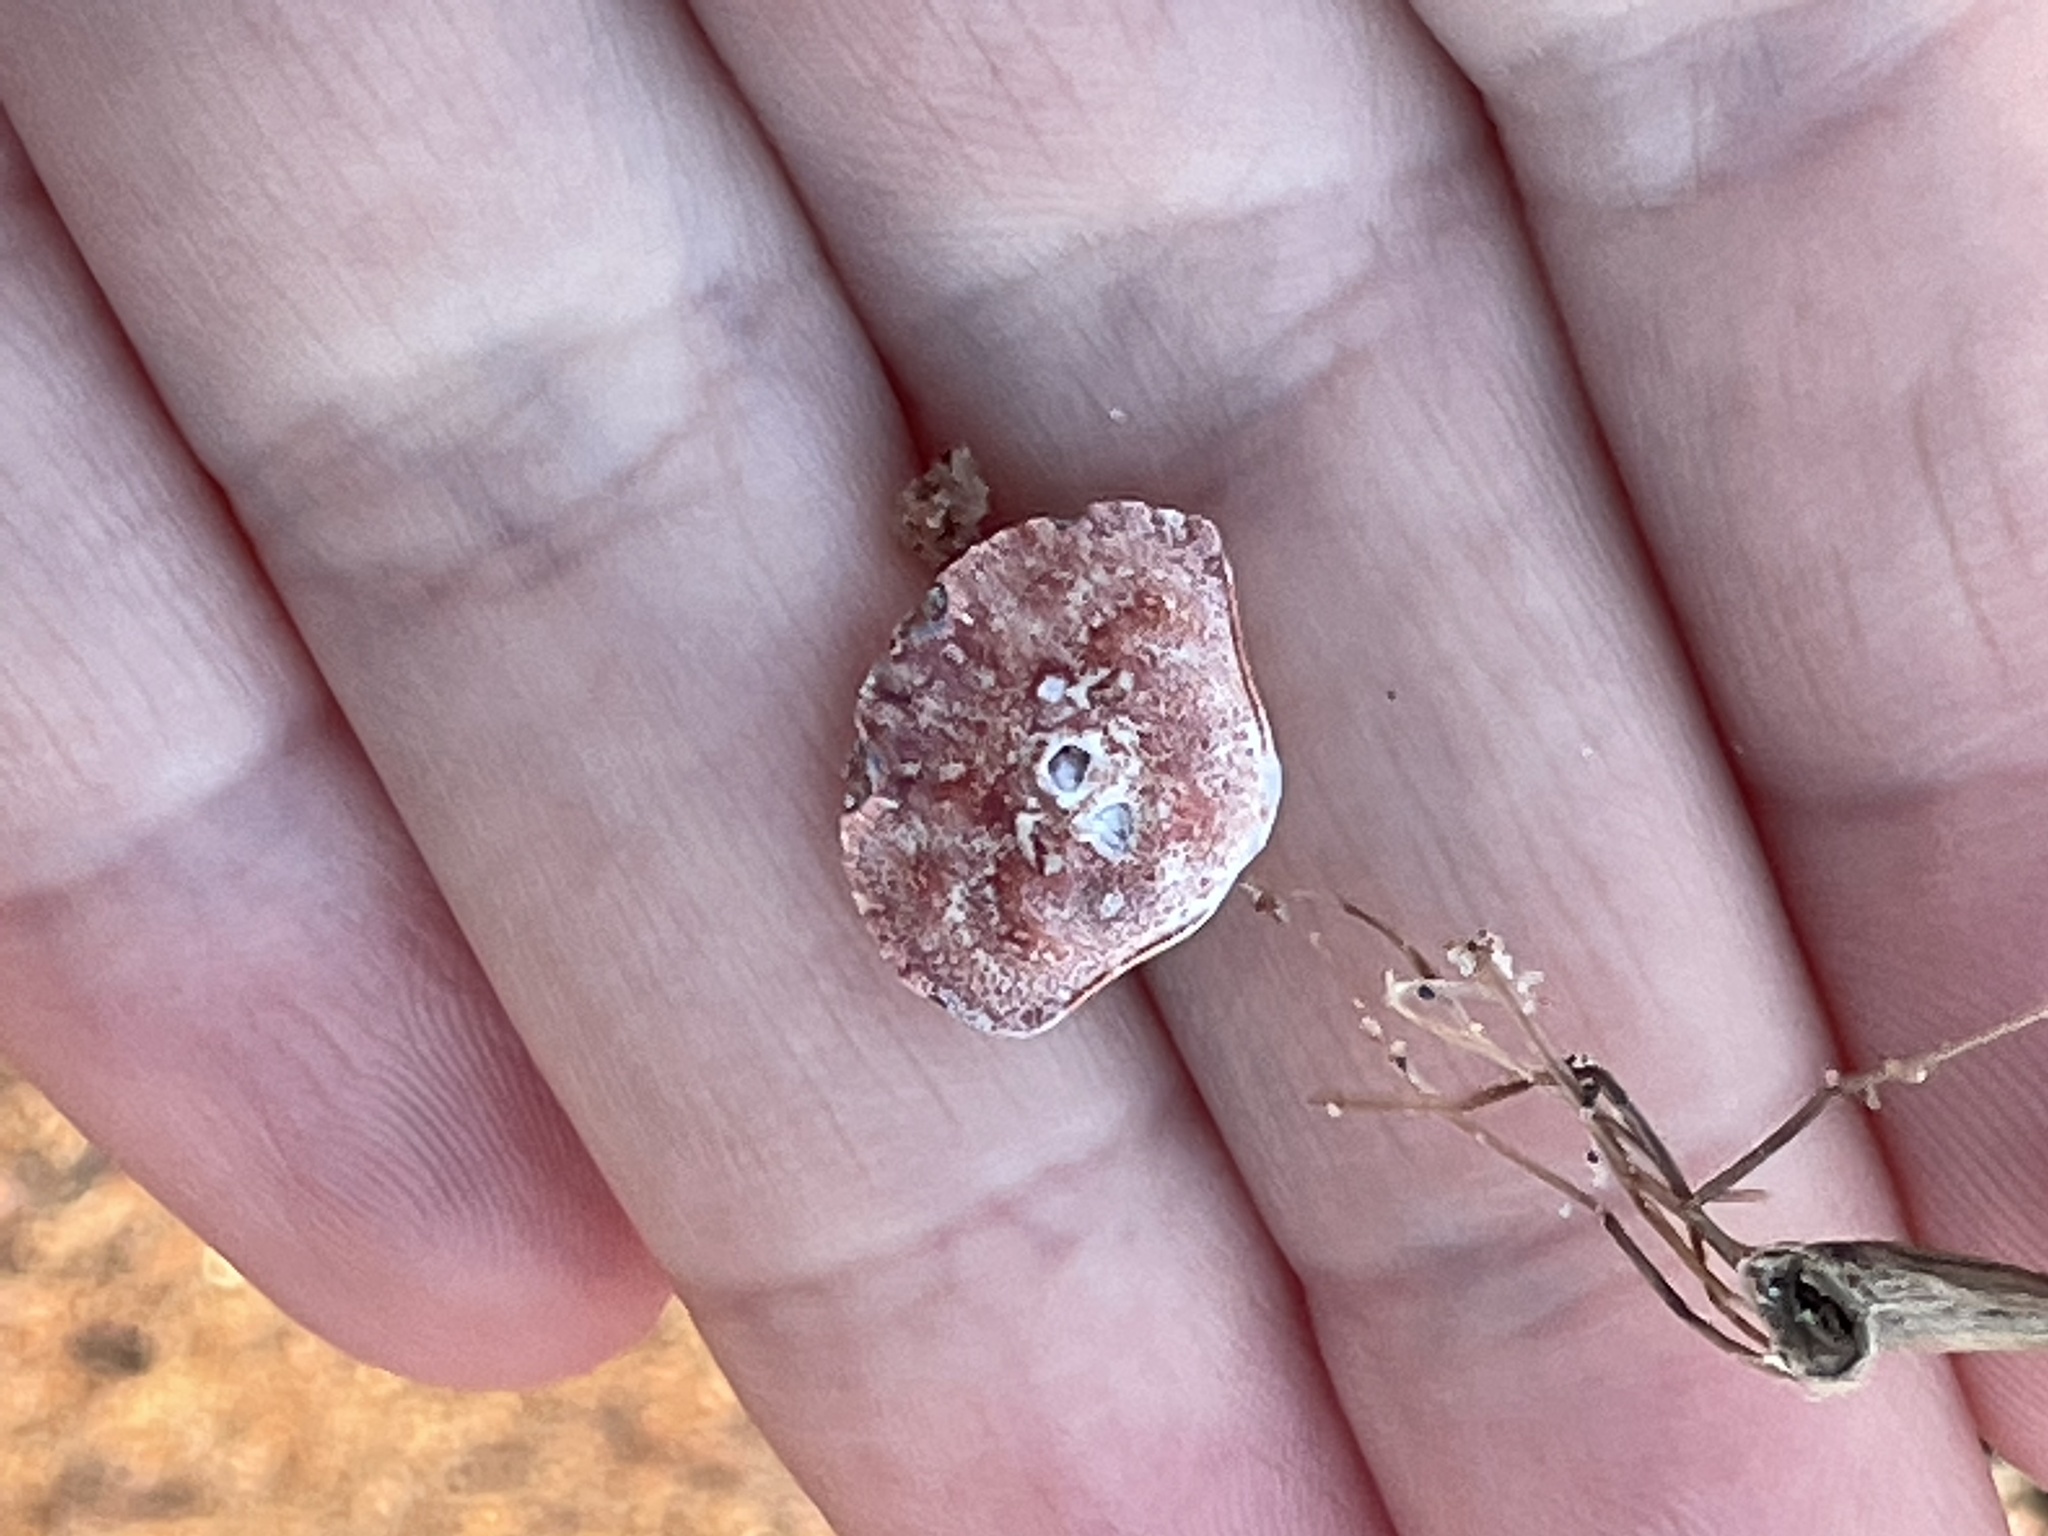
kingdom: Animalia
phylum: Arthropoda
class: Malacostraca
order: Decapoda
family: Cancridae
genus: Cancer
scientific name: Cancer irroratus
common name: Atlantic rock crab
